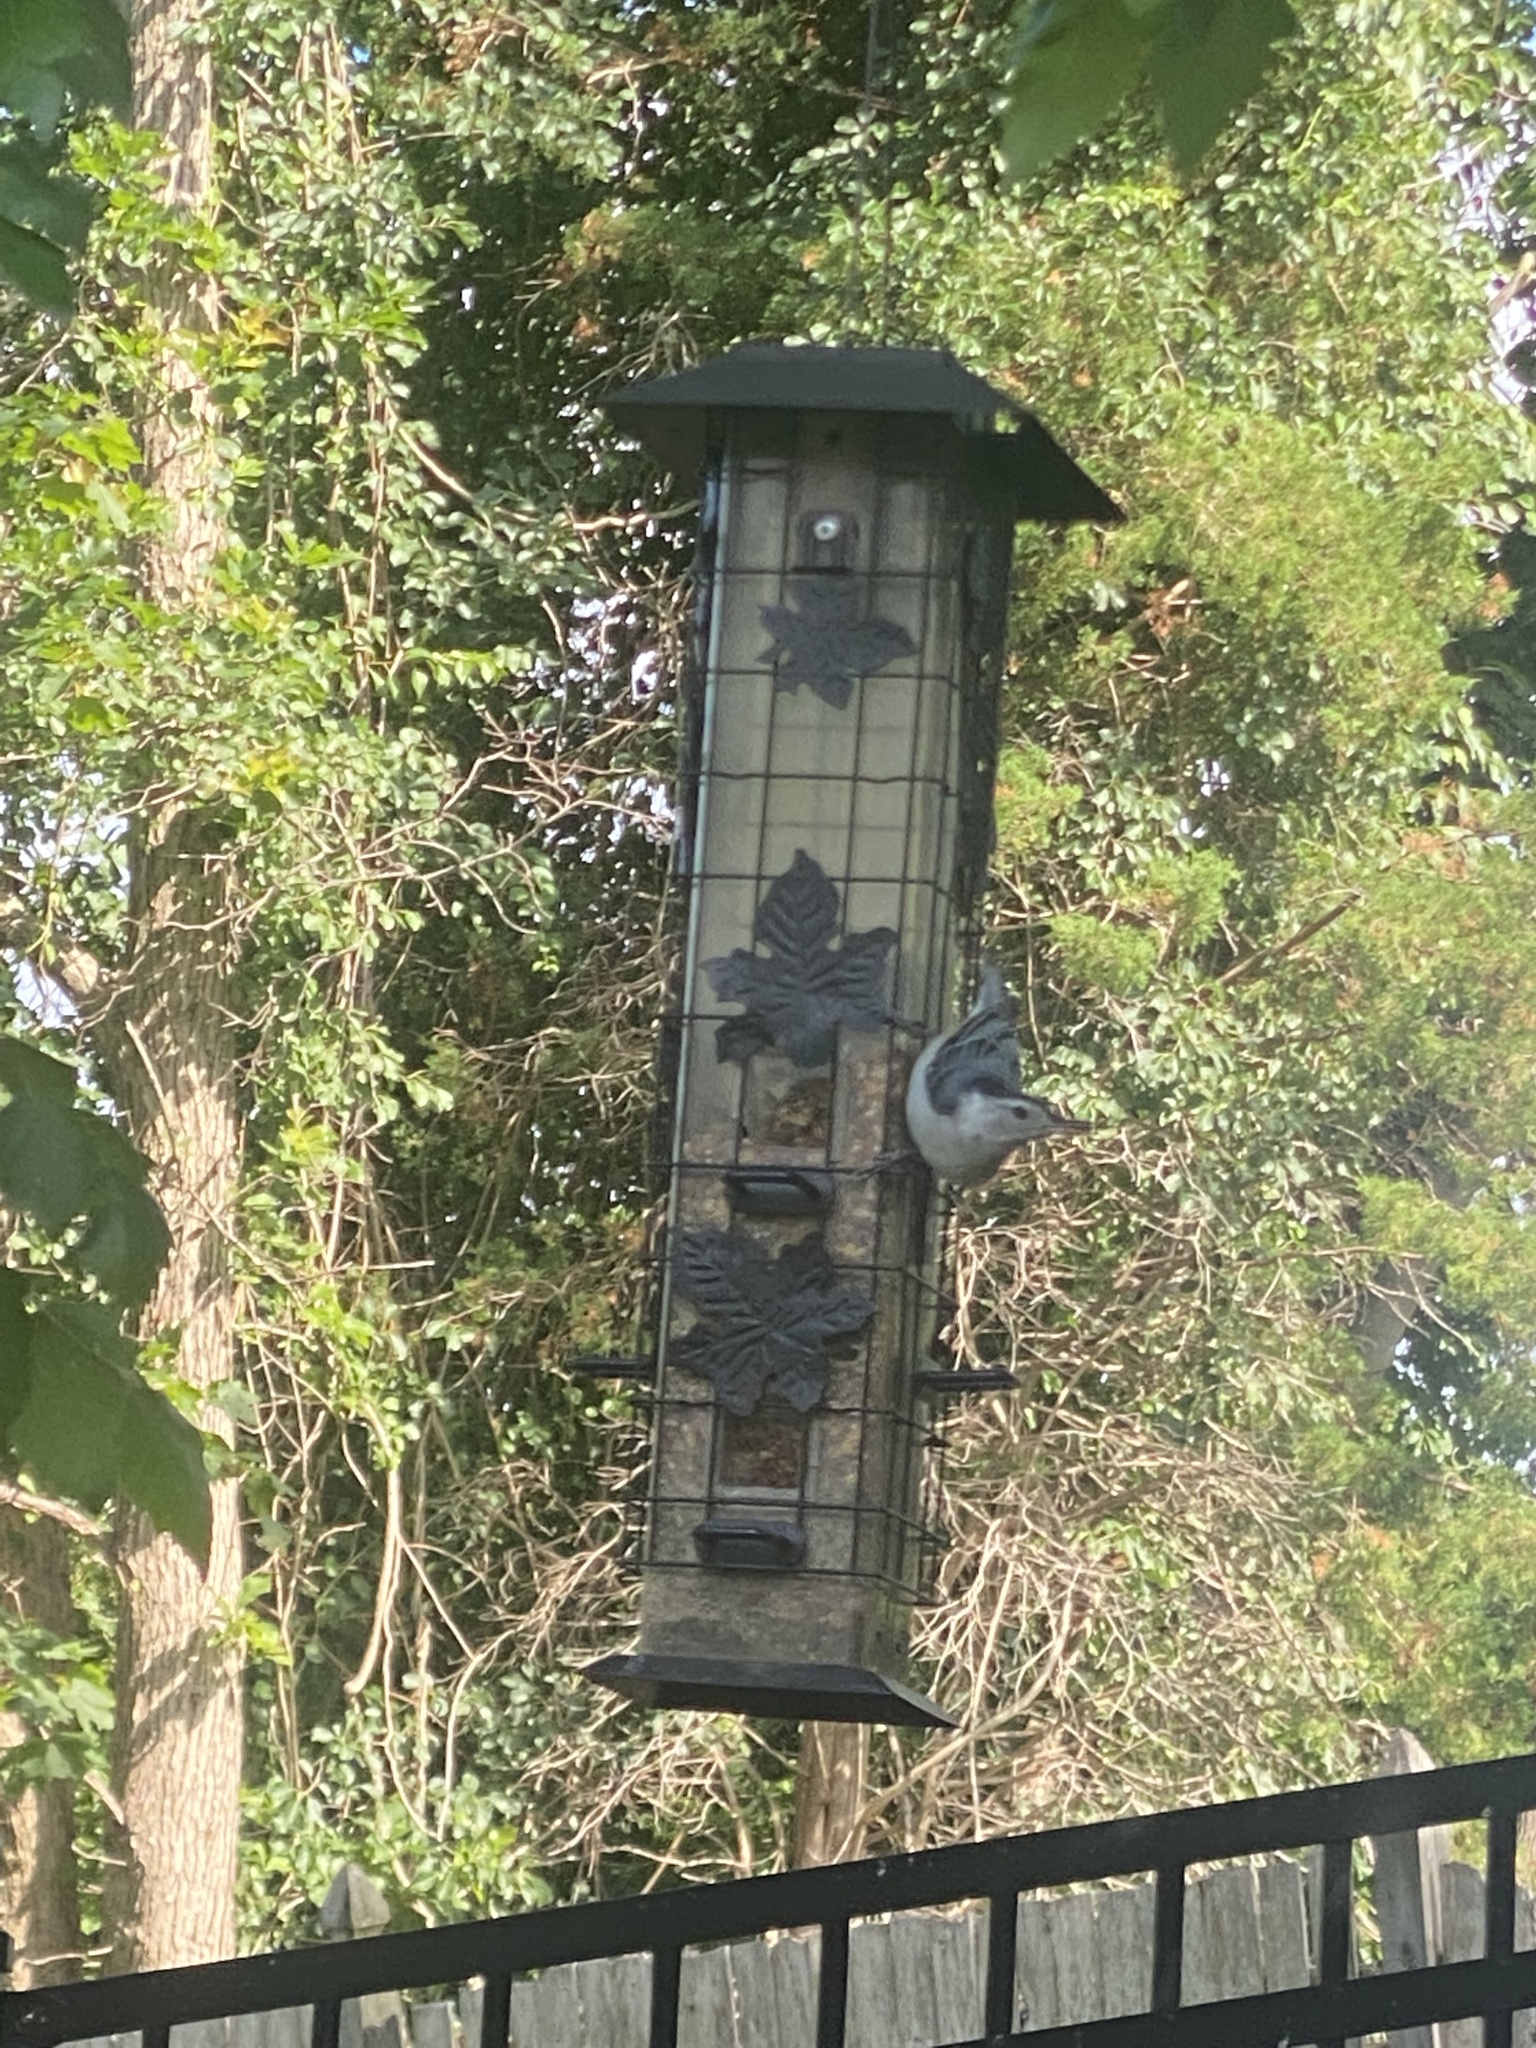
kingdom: Animalia
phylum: Chordata
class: Aves
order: Passeriformes
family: Sittidae
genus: Sitta
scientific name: Sitta carolinensis
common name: White-breasted nuthatch
